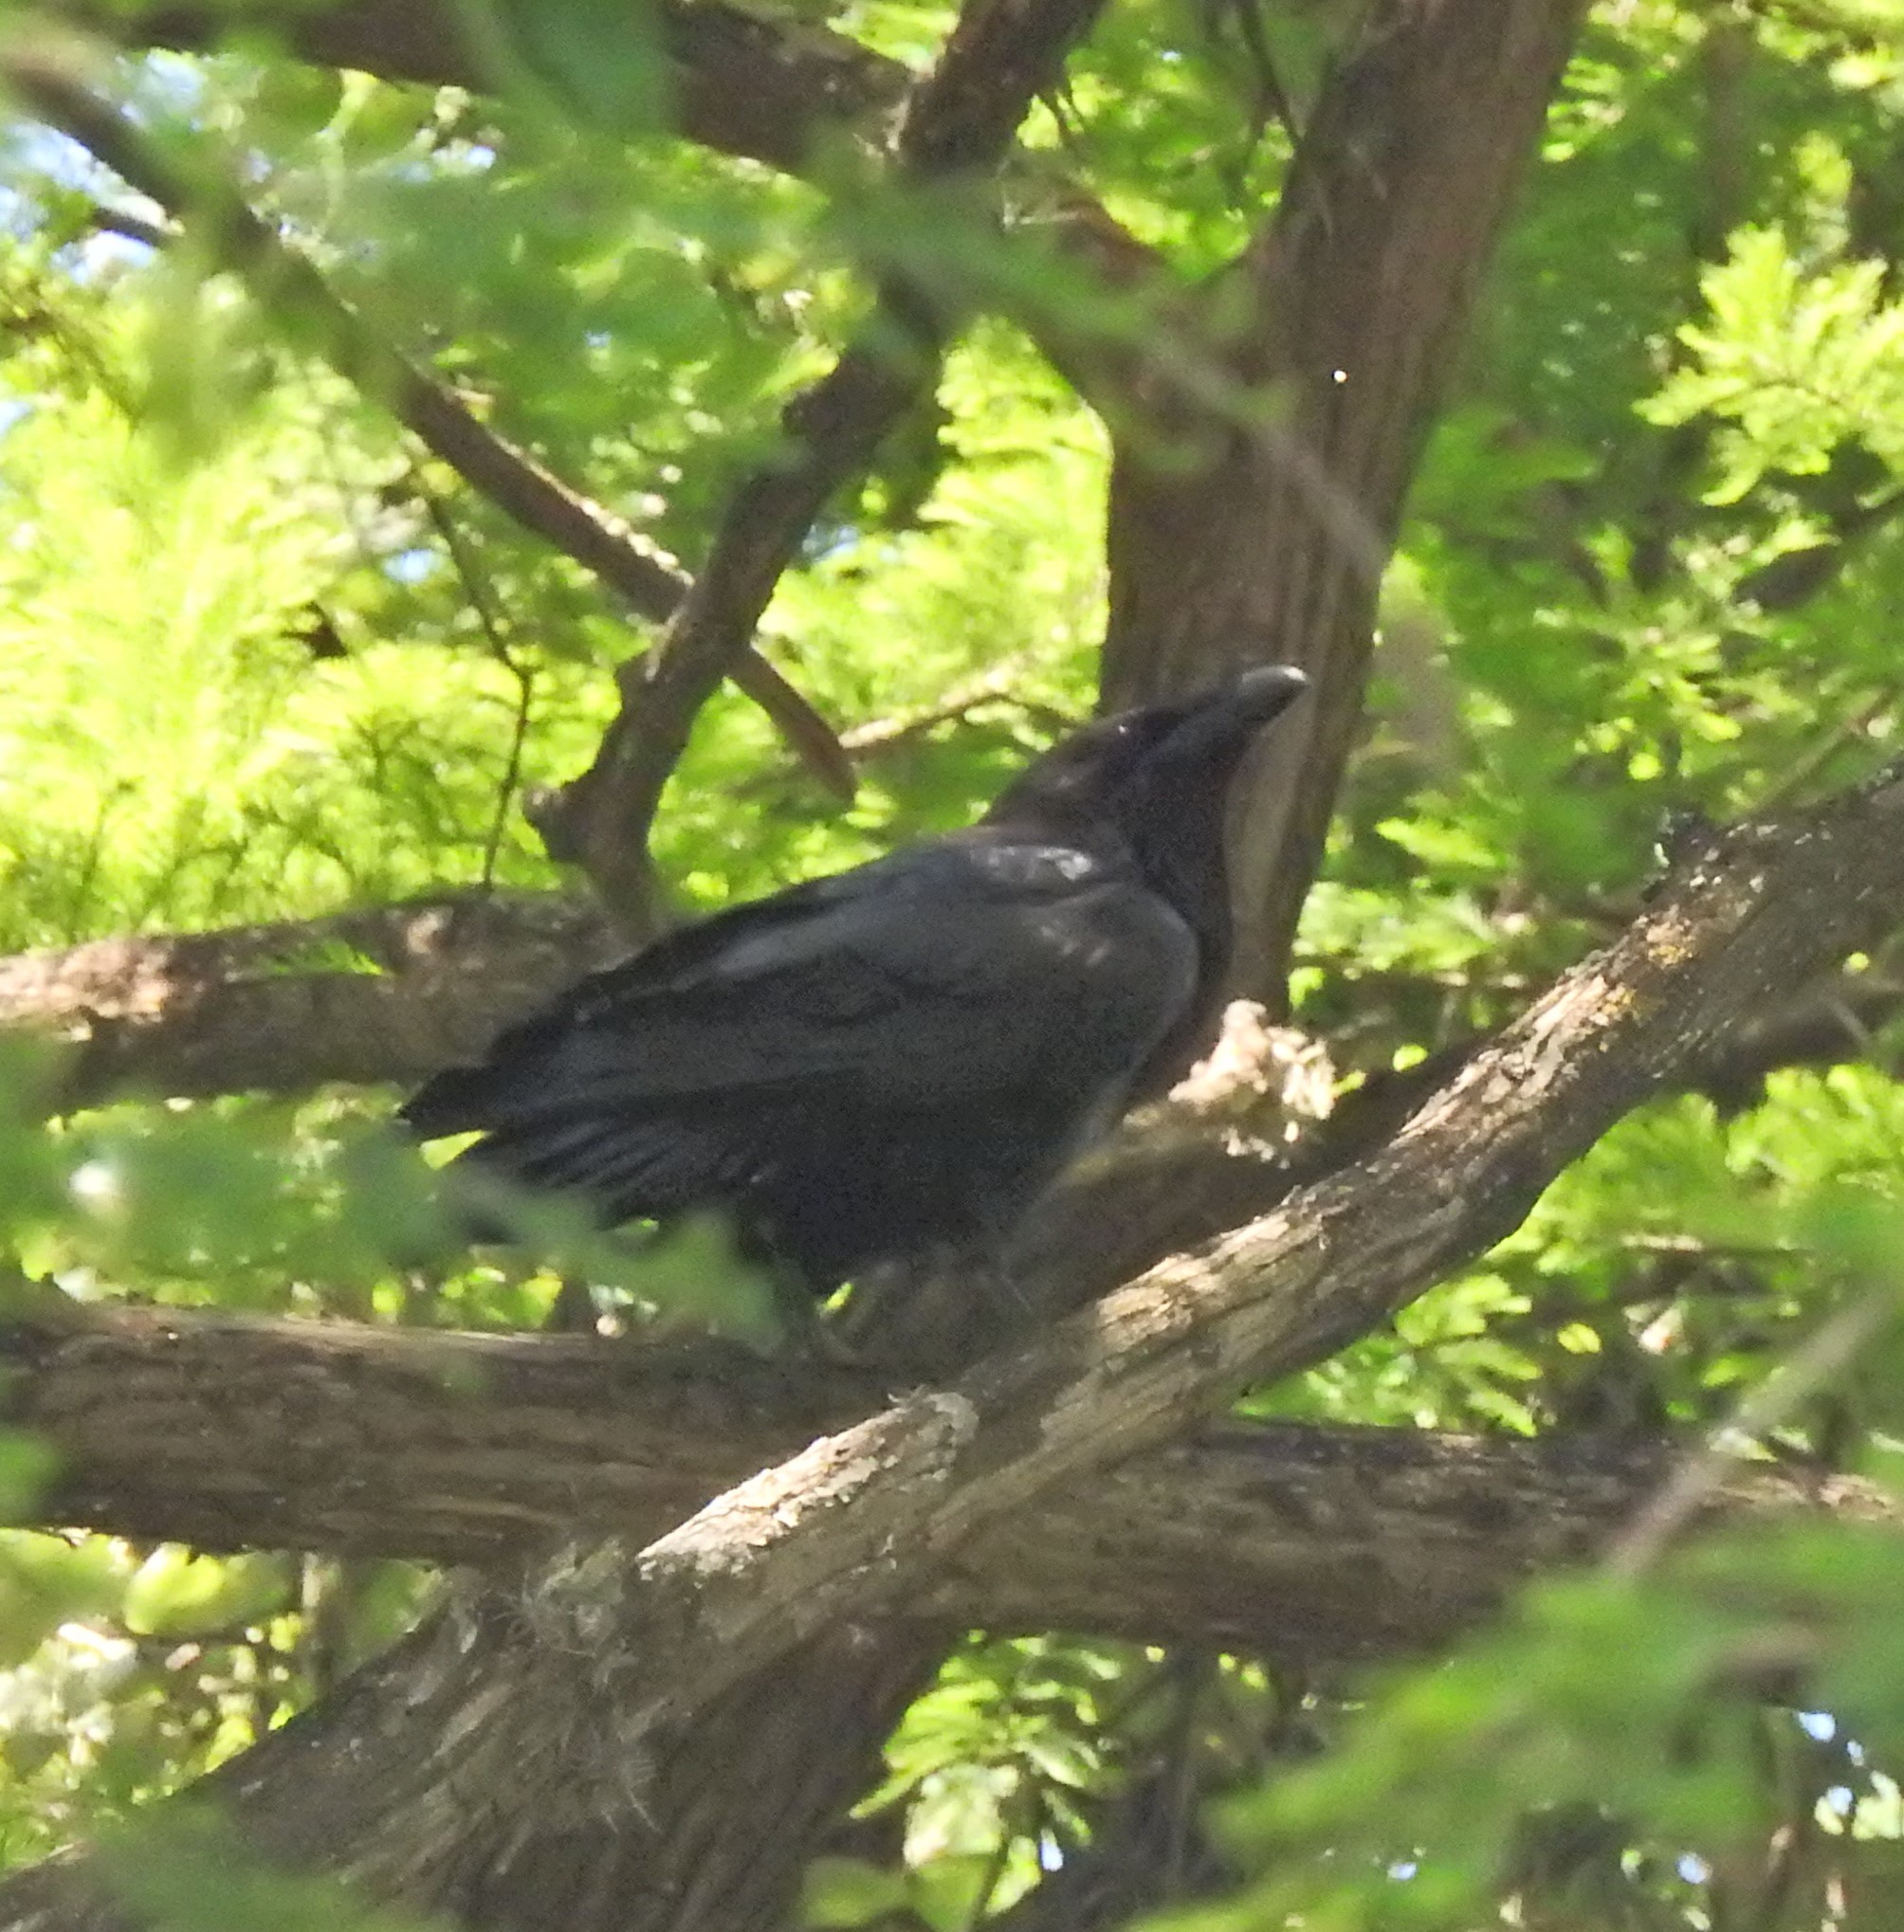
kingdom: Animalia
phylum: Chordata
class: Aves
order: Passeriformes
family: Corvidae
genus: Corvus
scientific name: Corvus corax
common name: Common raven
